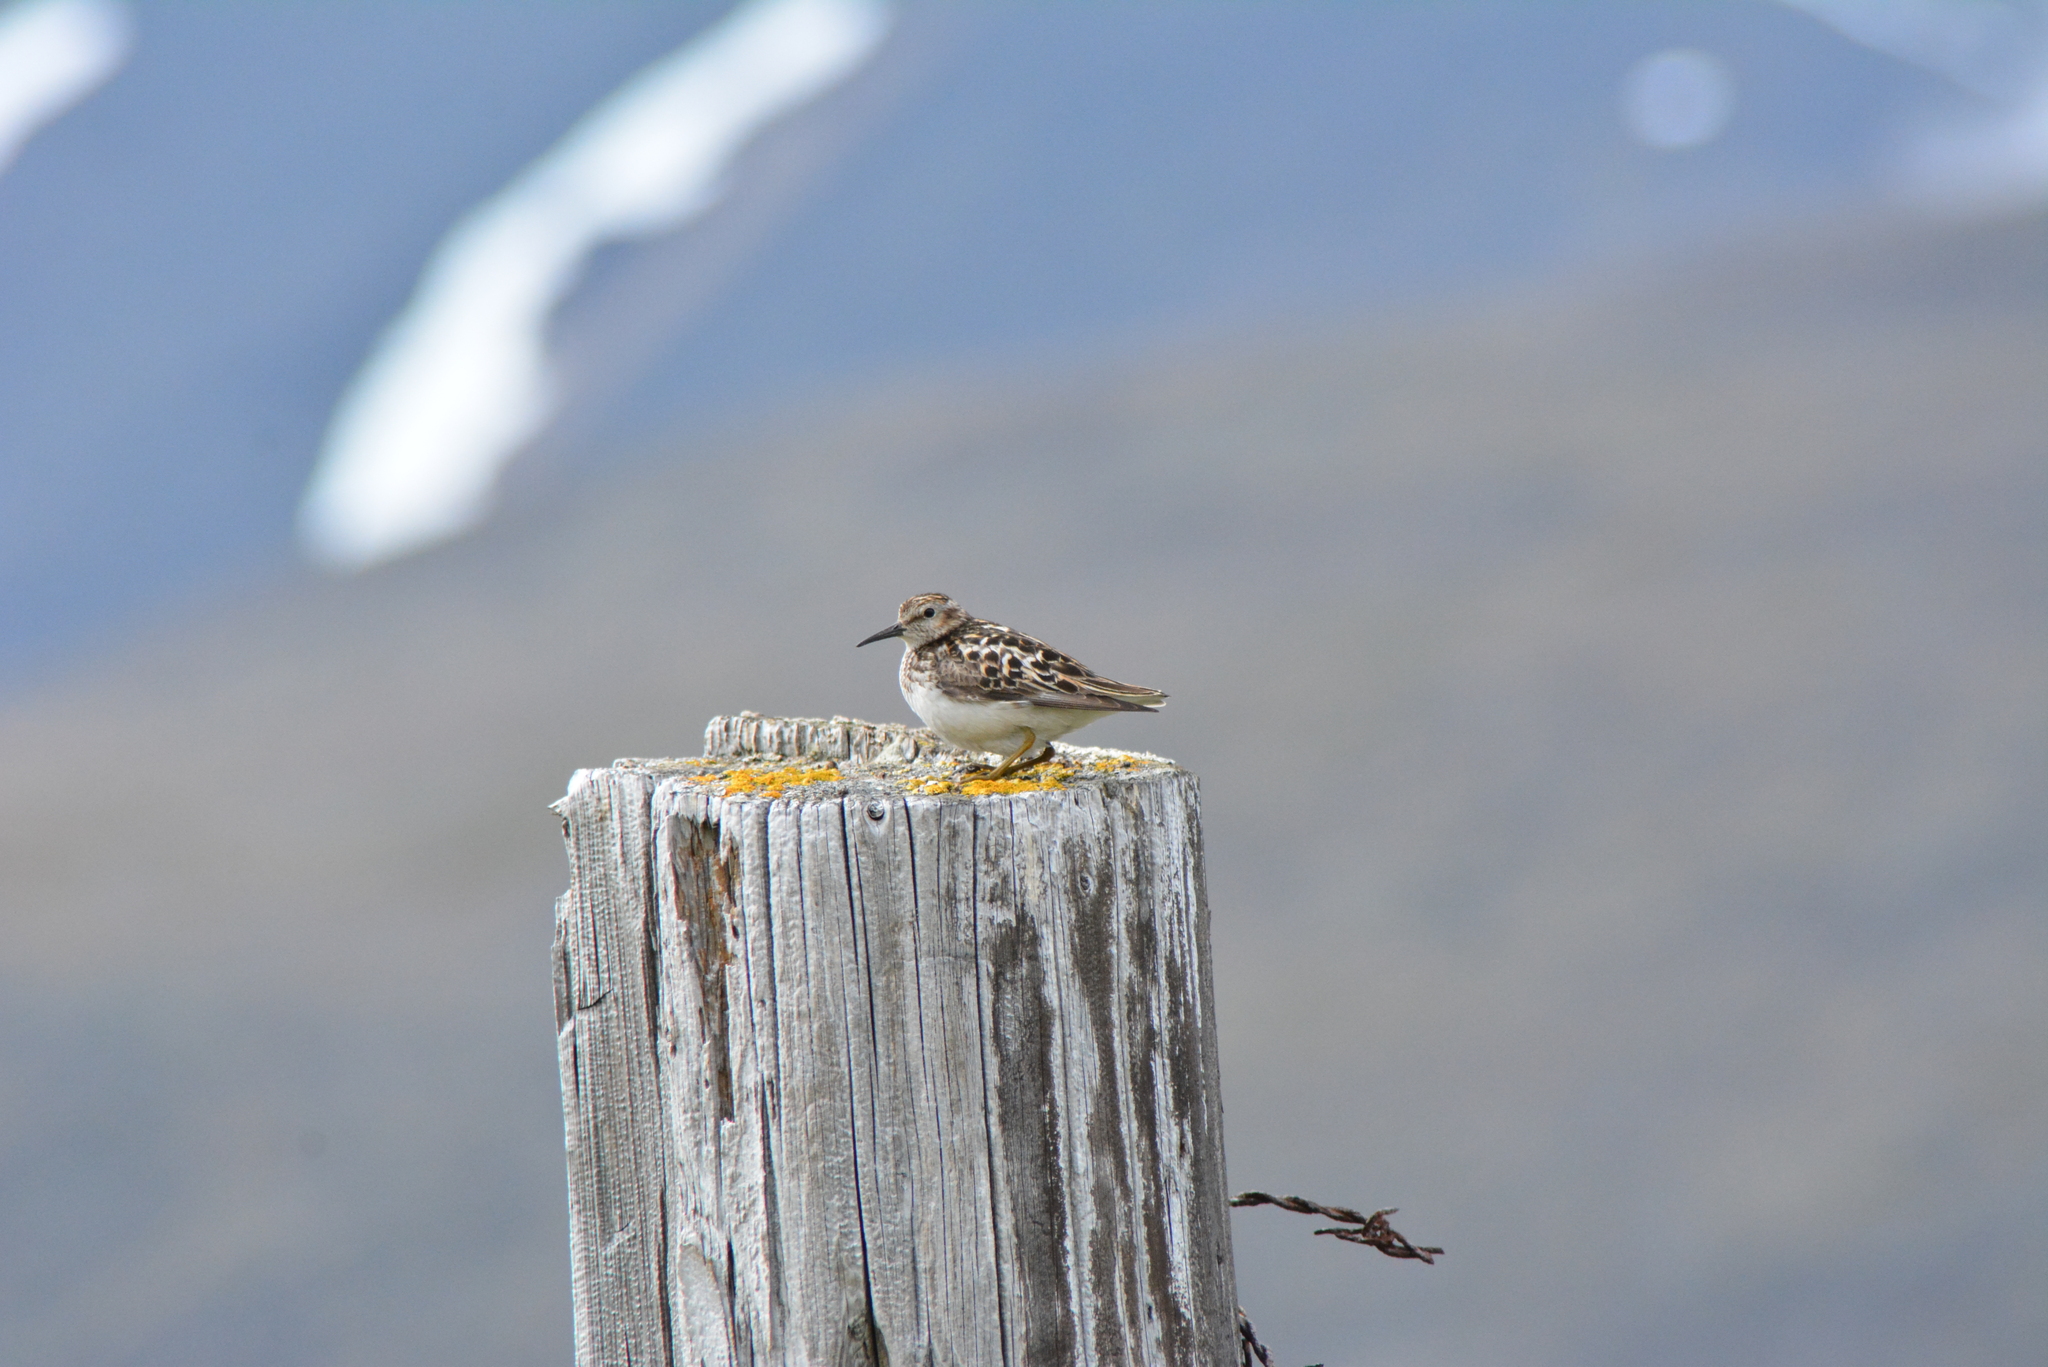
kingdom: Animalia
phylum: Chordata
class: Aves
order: Charadriiformes
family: Scolopacidae
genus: Calidris
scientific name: Calidris minutilla
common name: Least sandpiper
